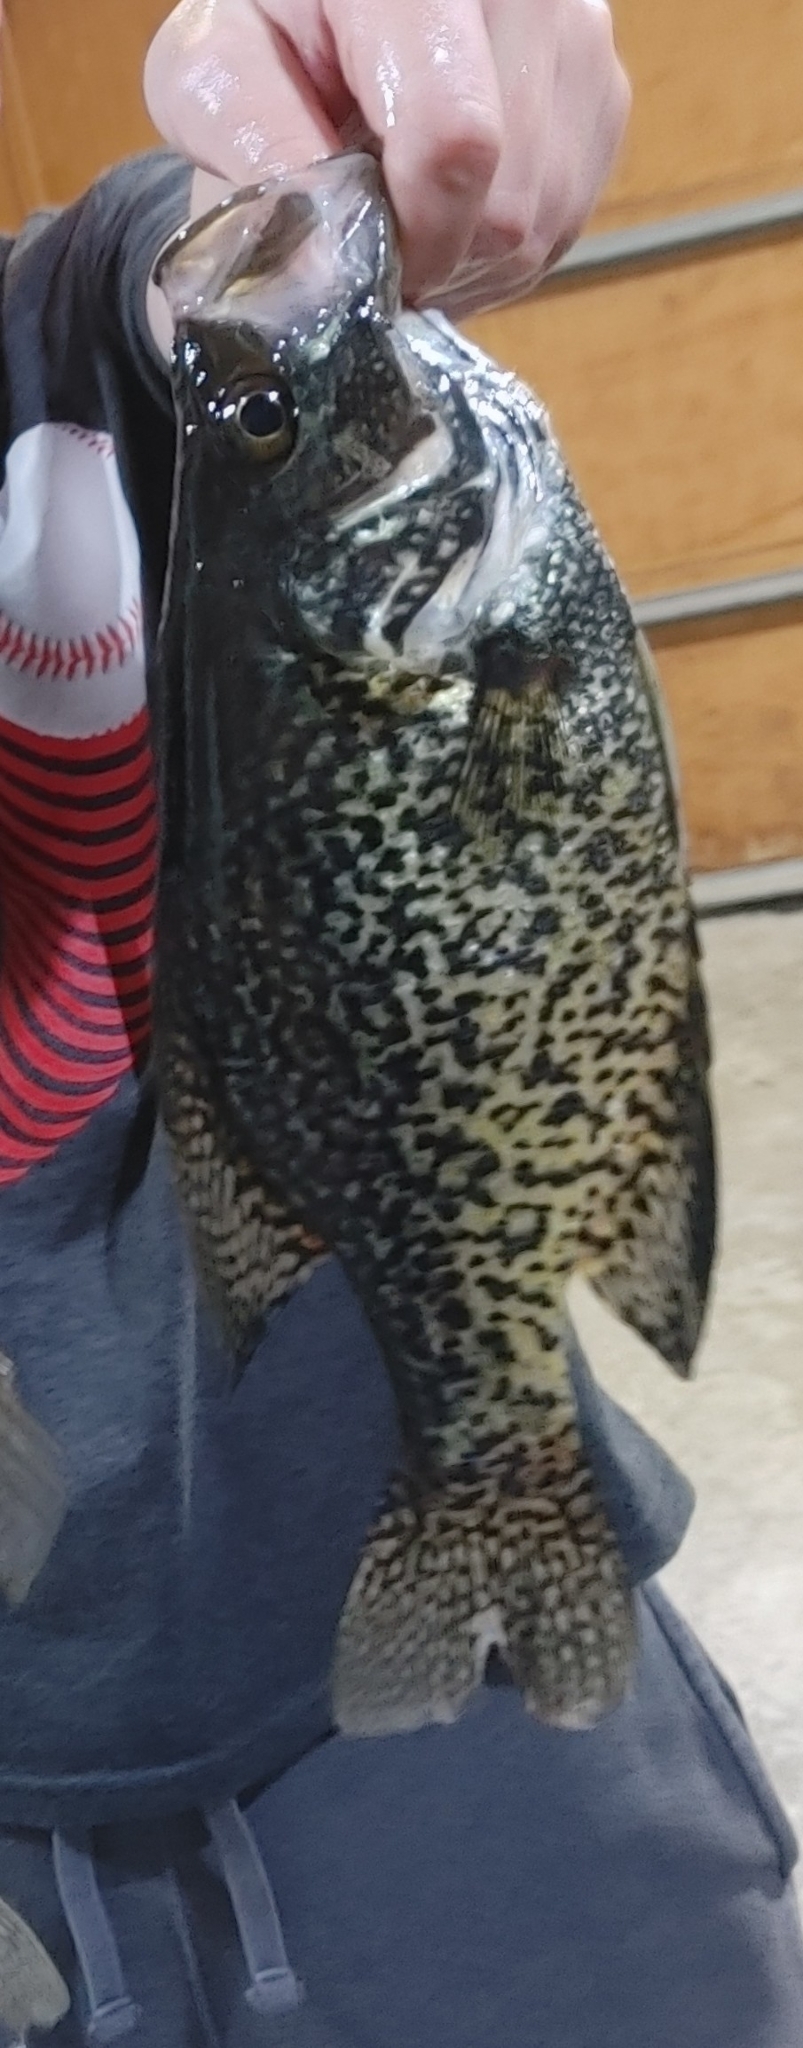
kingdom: Animalia
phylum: Chordata
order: Perciformes
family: Centrarchidae
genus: Pomoxis
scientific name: Pomoxis nigromaculatus
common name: Black crappie
